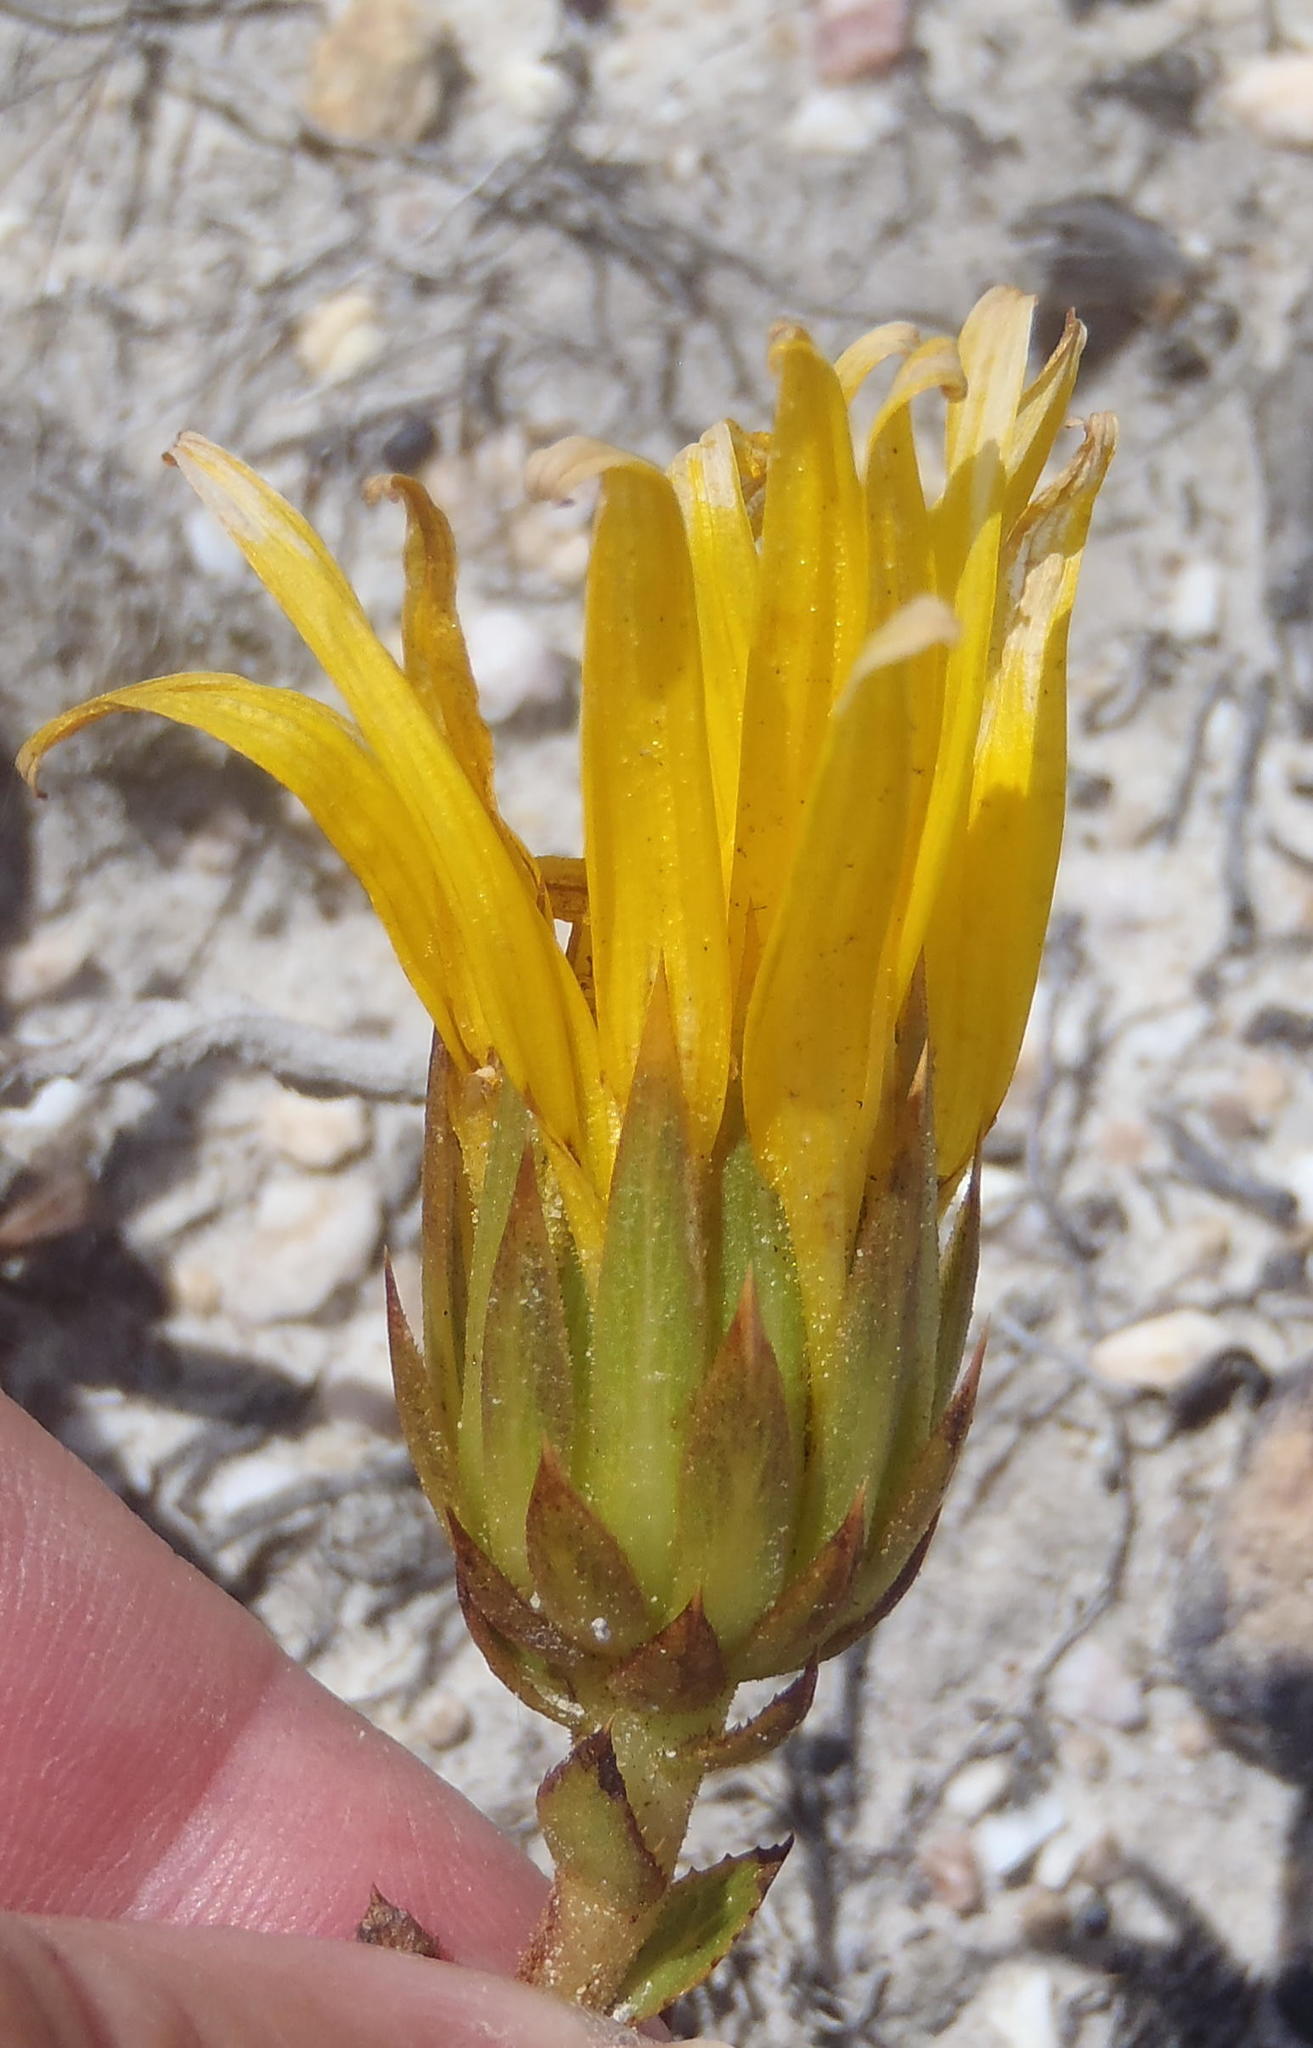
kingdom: Plantae
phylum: Tracheophyta
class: Magnoliopsida
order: Asterales
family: Asteraceae
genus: Berkheya
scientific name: Berkheya herbacea
